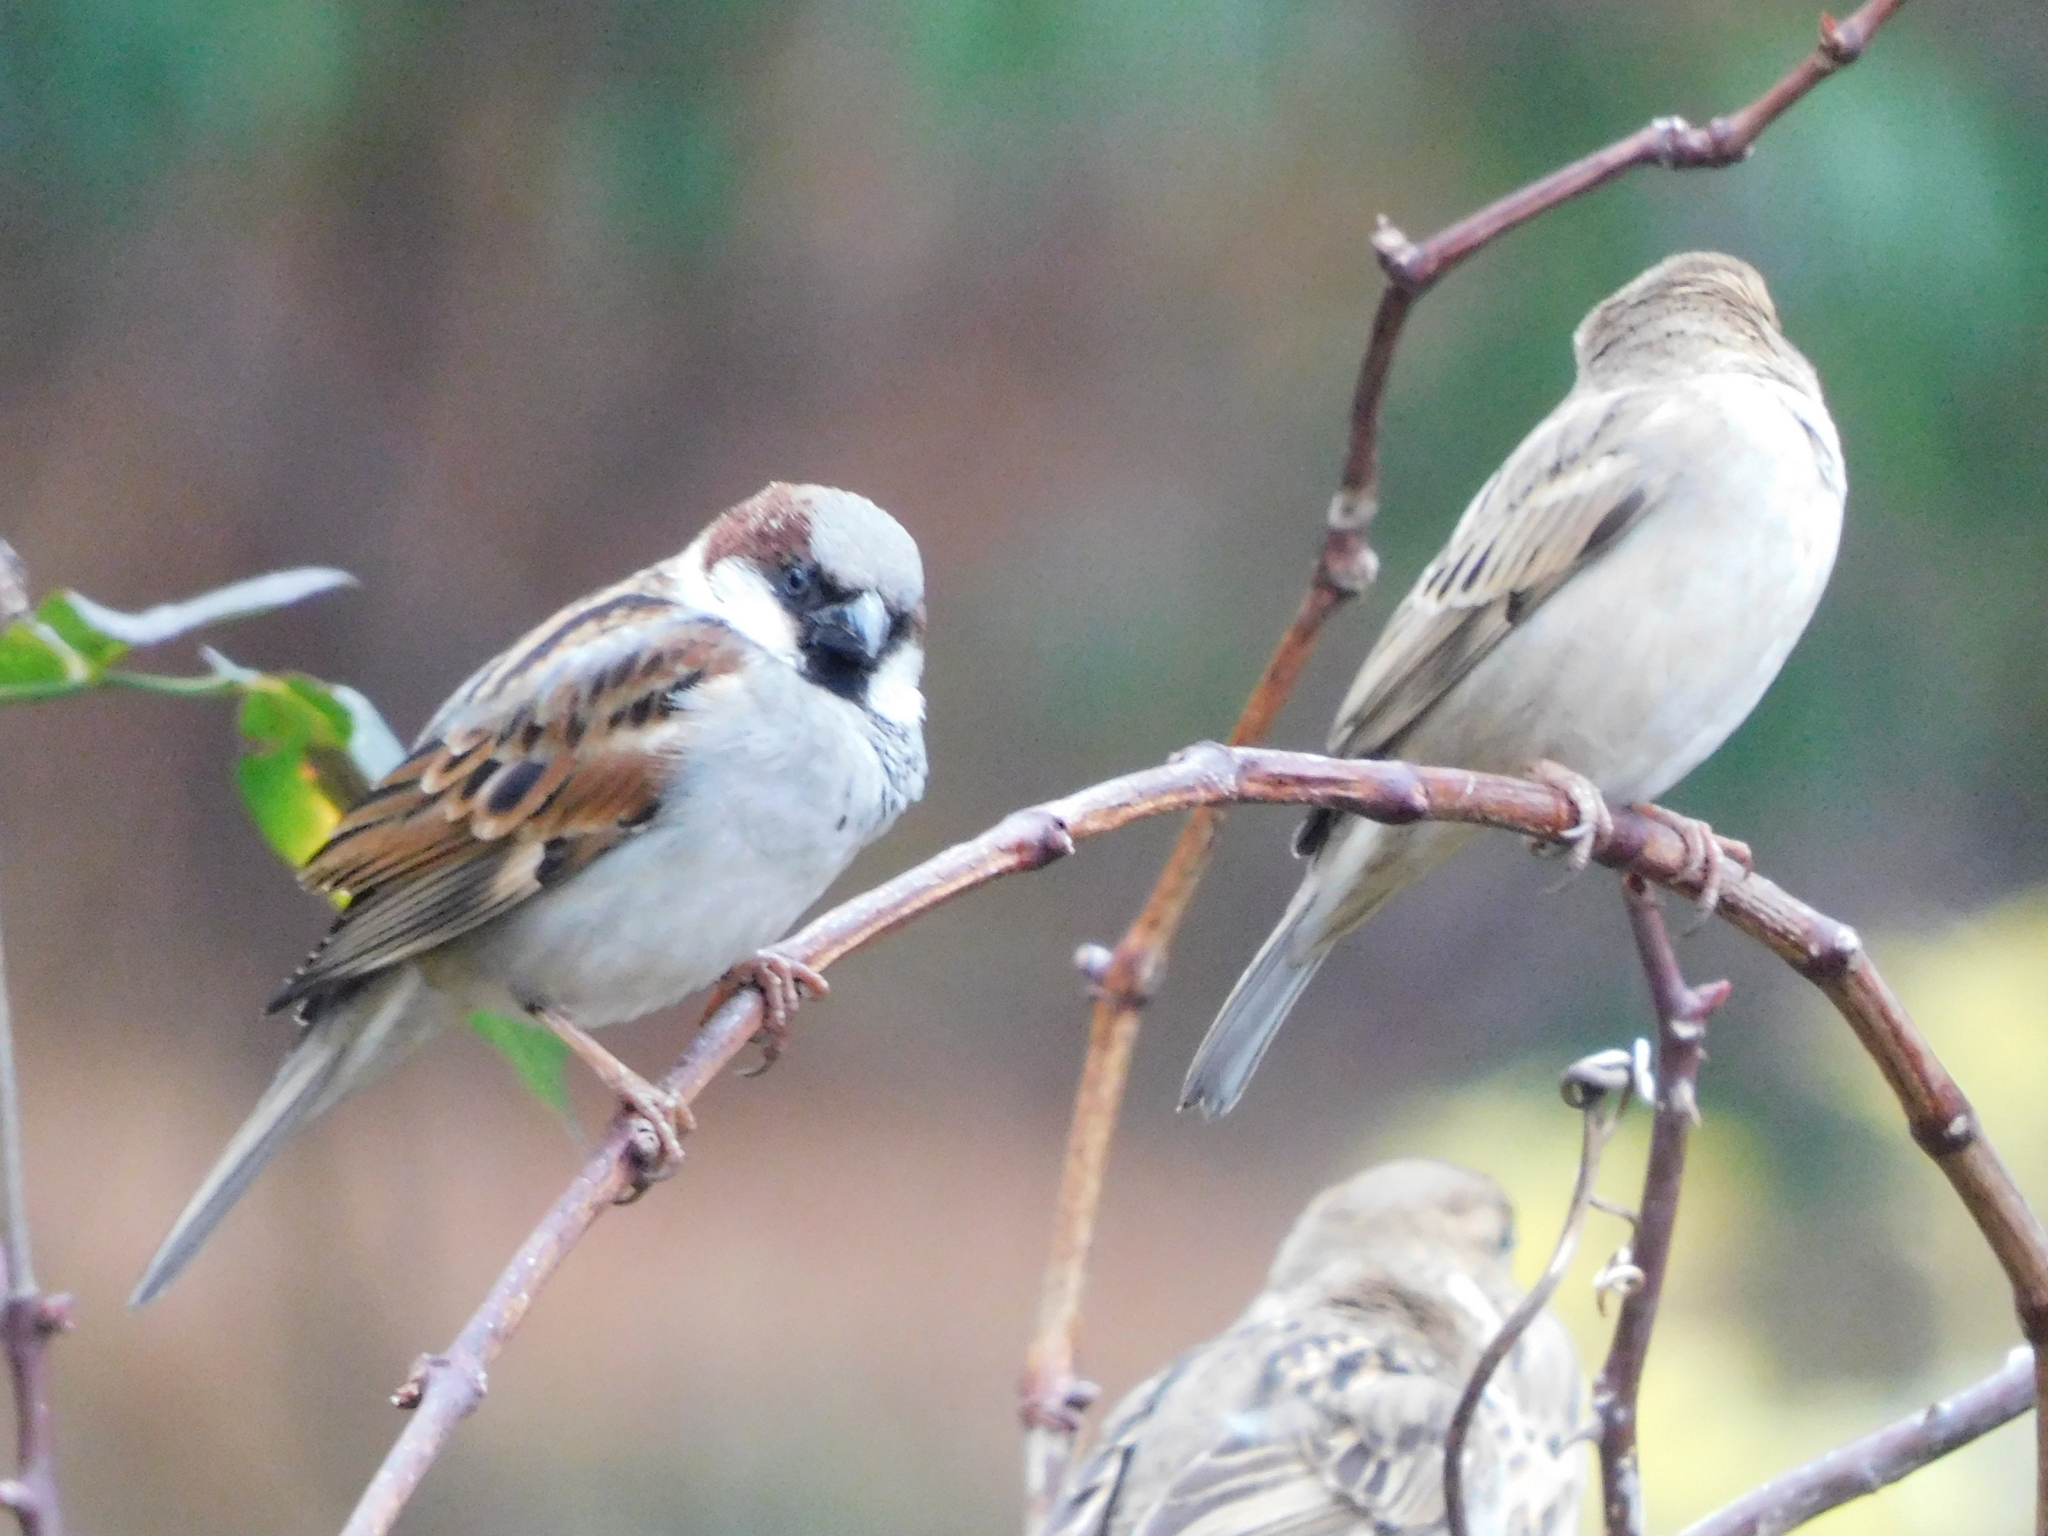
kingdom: Animalia
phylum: Chordata
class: Aves
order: Passeriformes
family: Passeridae
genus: Passer
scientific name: Passer domesticus
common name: House sparrow
